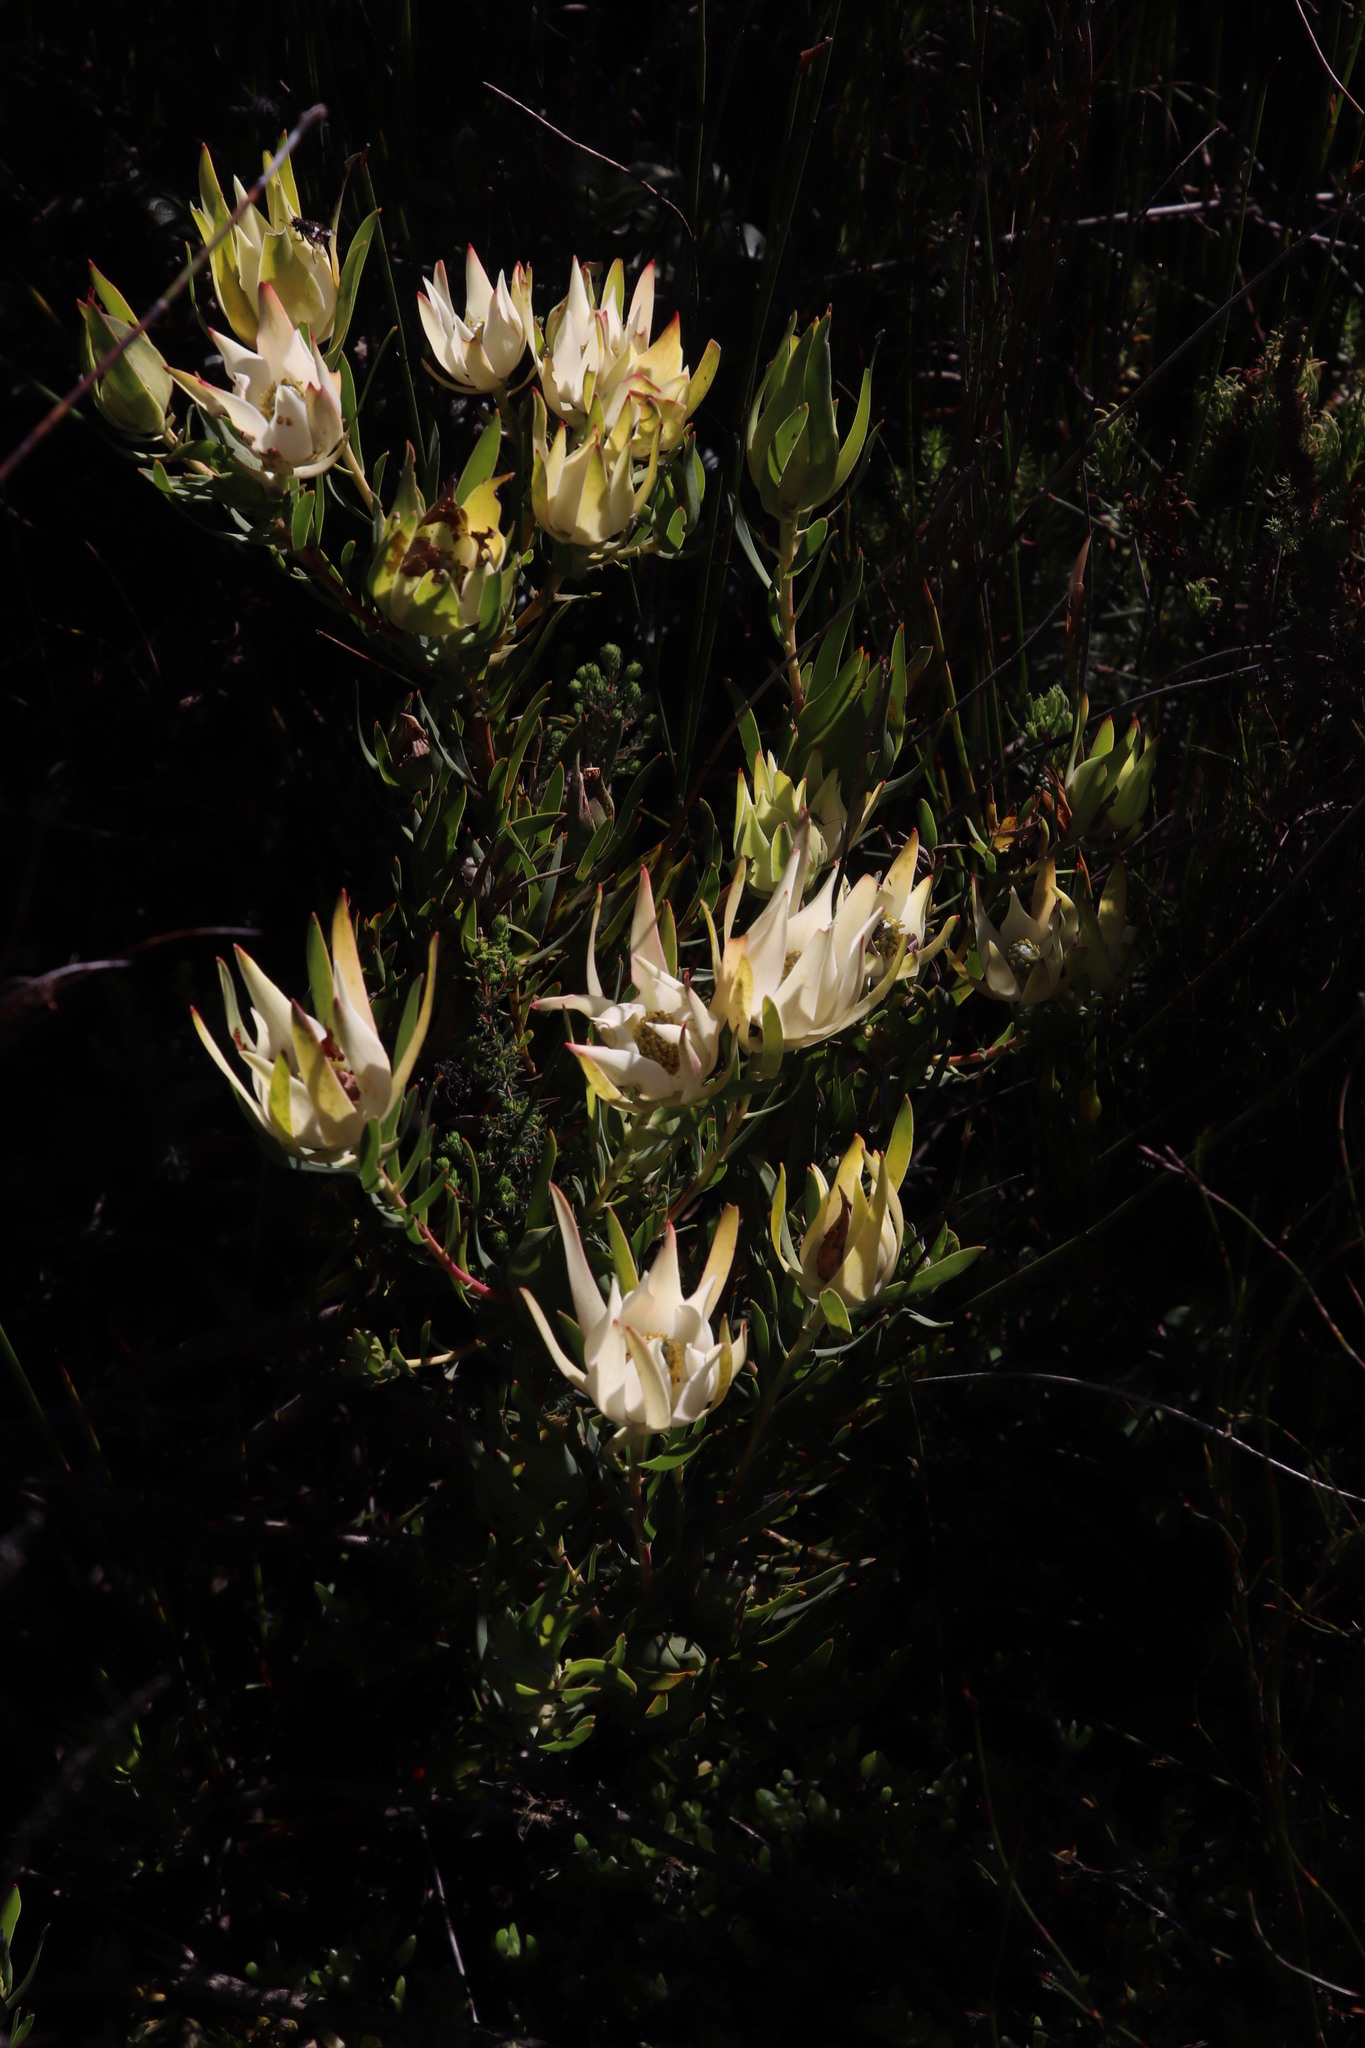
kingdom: Plantae
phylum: Tracheophyta
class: Magnoliopsida
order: Proteales
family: Proteaceae
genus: Leucadendron
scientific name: Leucadendron salignum
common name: Common sunshine conebush
